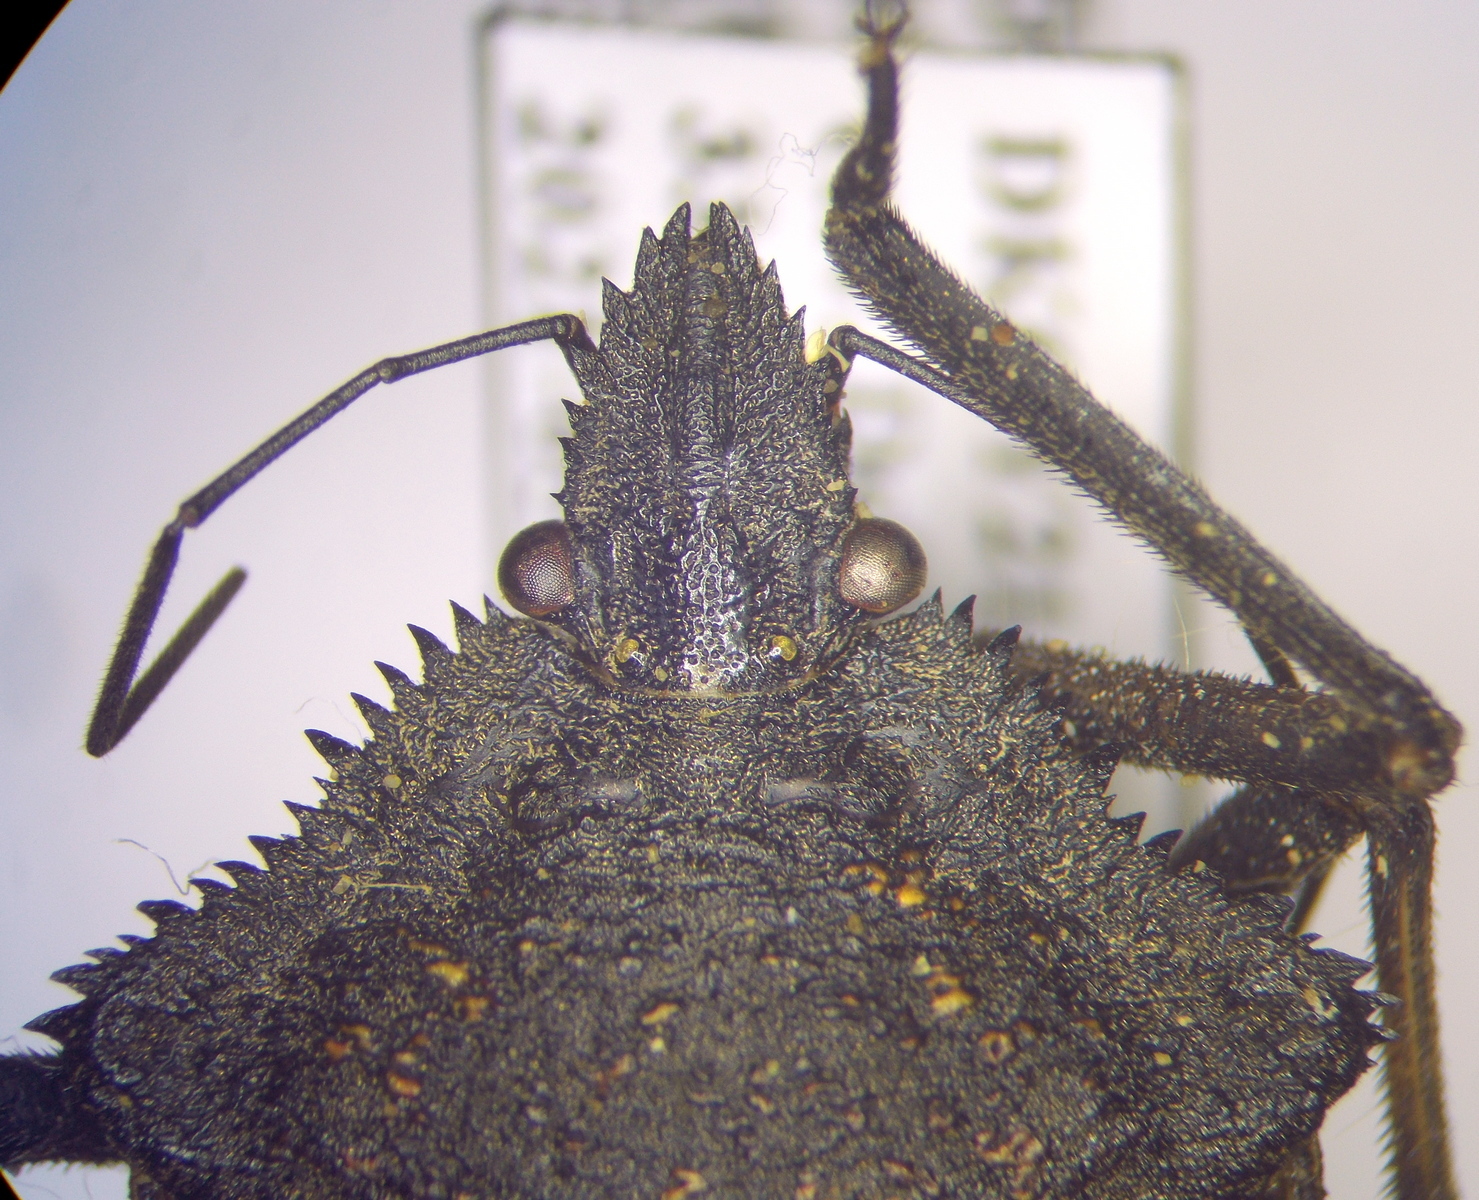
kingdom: Animalia
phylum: Arthropoda
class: Insecta
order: Hemiptera
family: Pentatomidae
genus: Mustha
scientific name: Mustha spinosula
